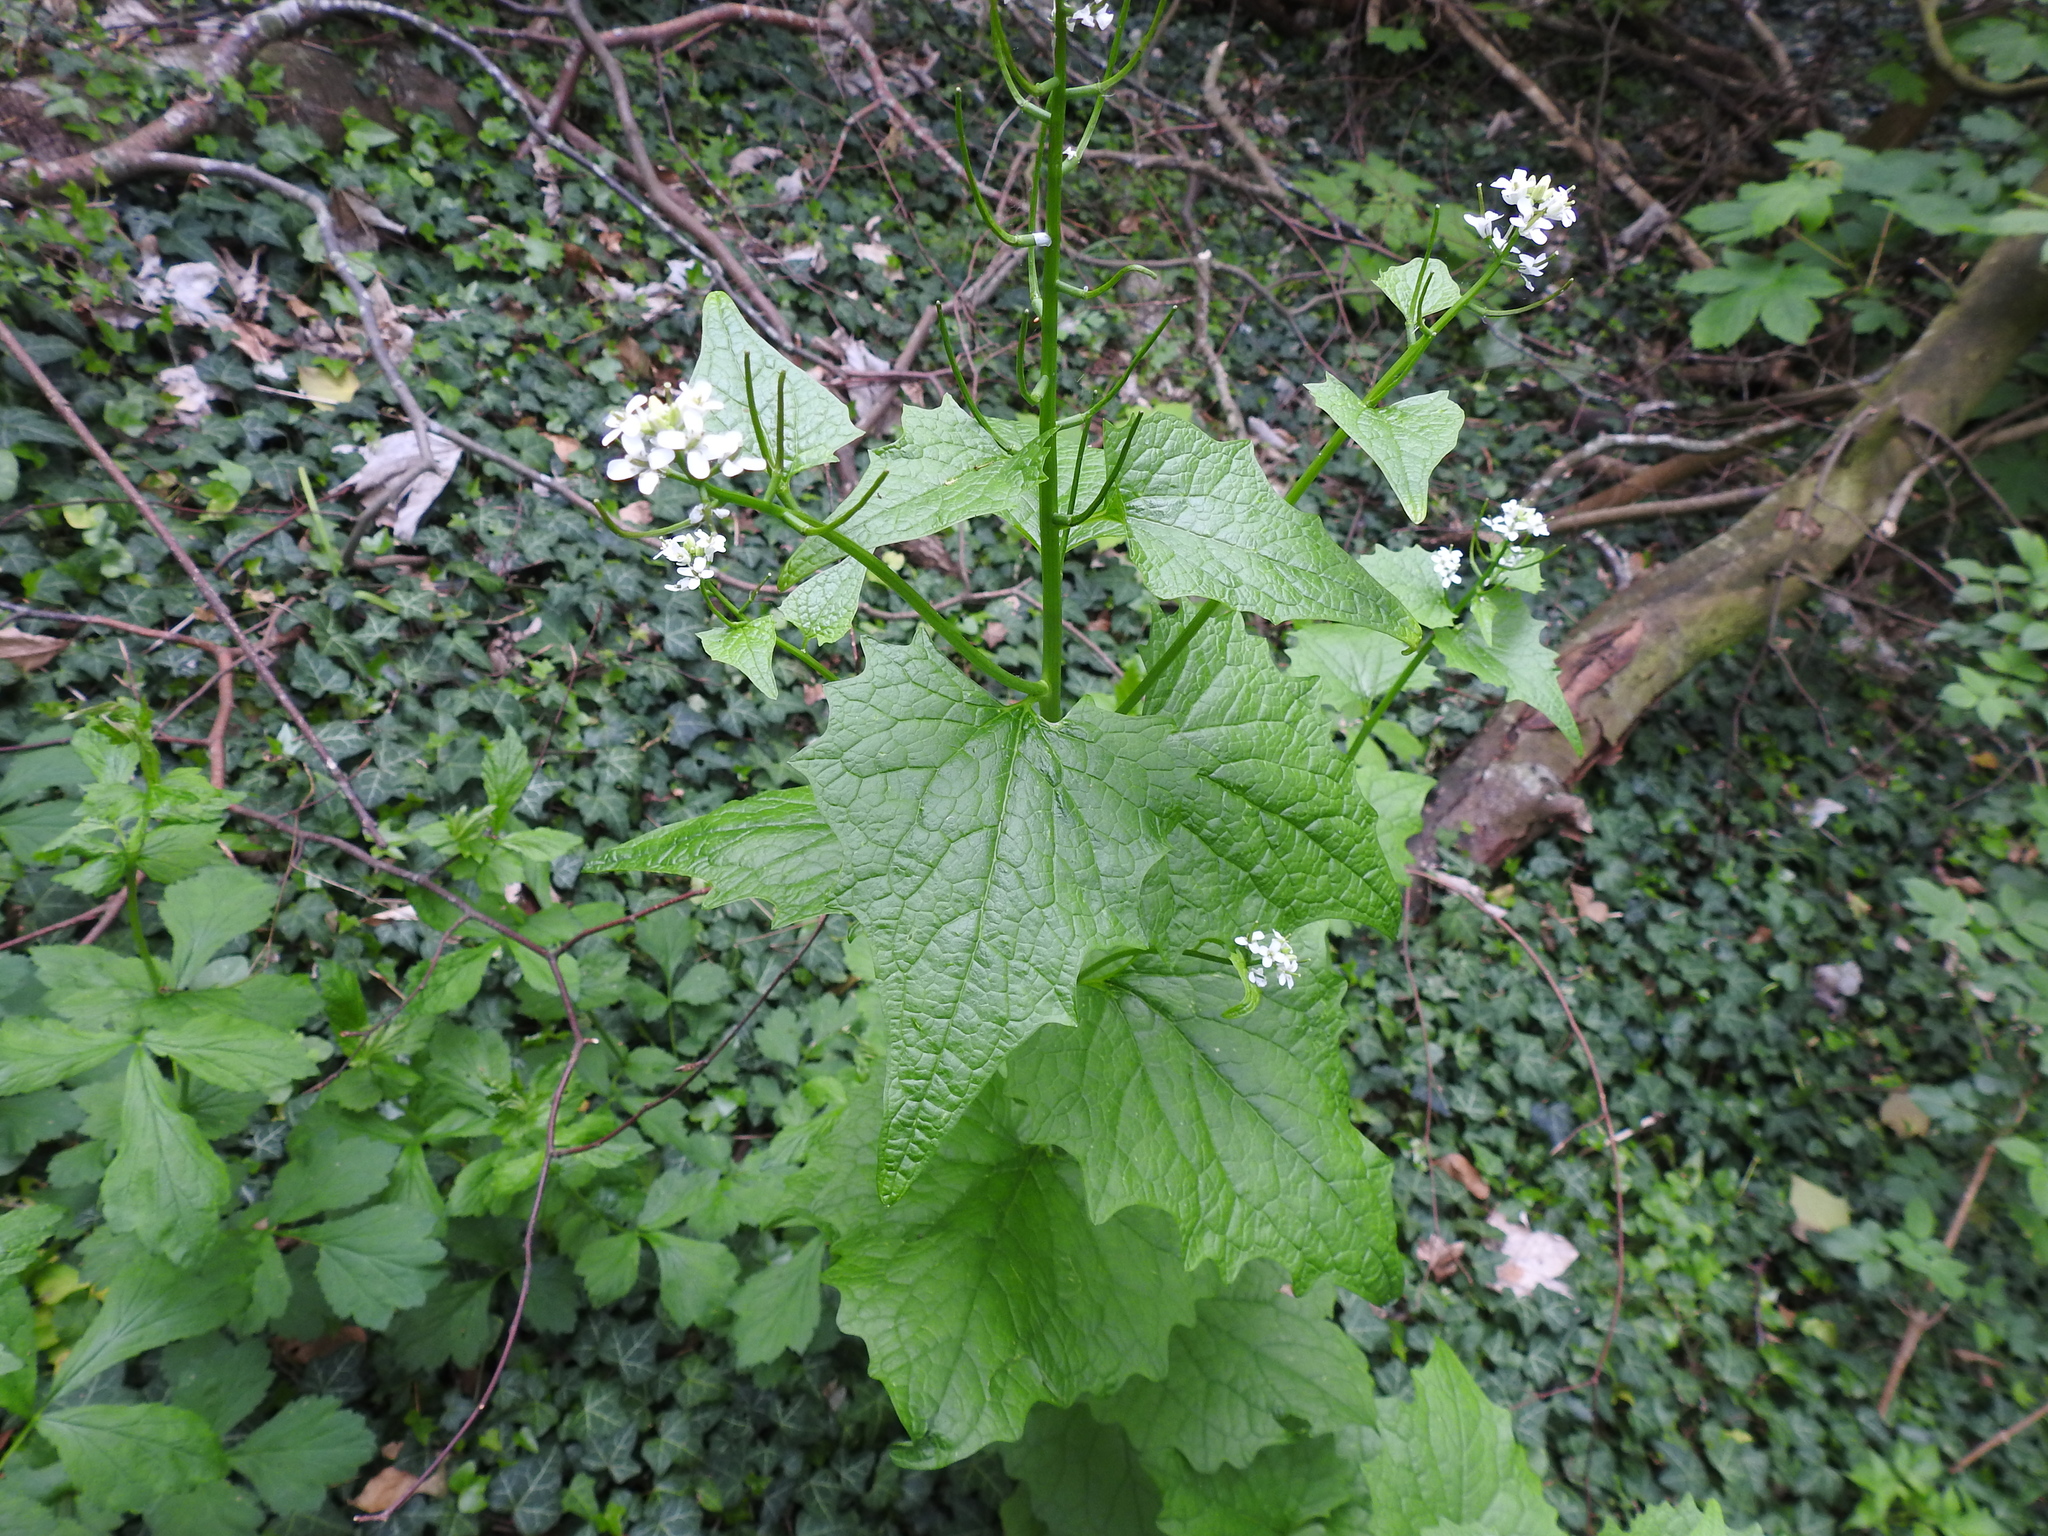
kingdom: Plantae
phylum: Tracheophyta
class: Magnoliopsida
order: Brassicales
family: Brassicaceae
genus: Alliaria
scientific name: Alliaria petiolata
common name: Garlic mustard
